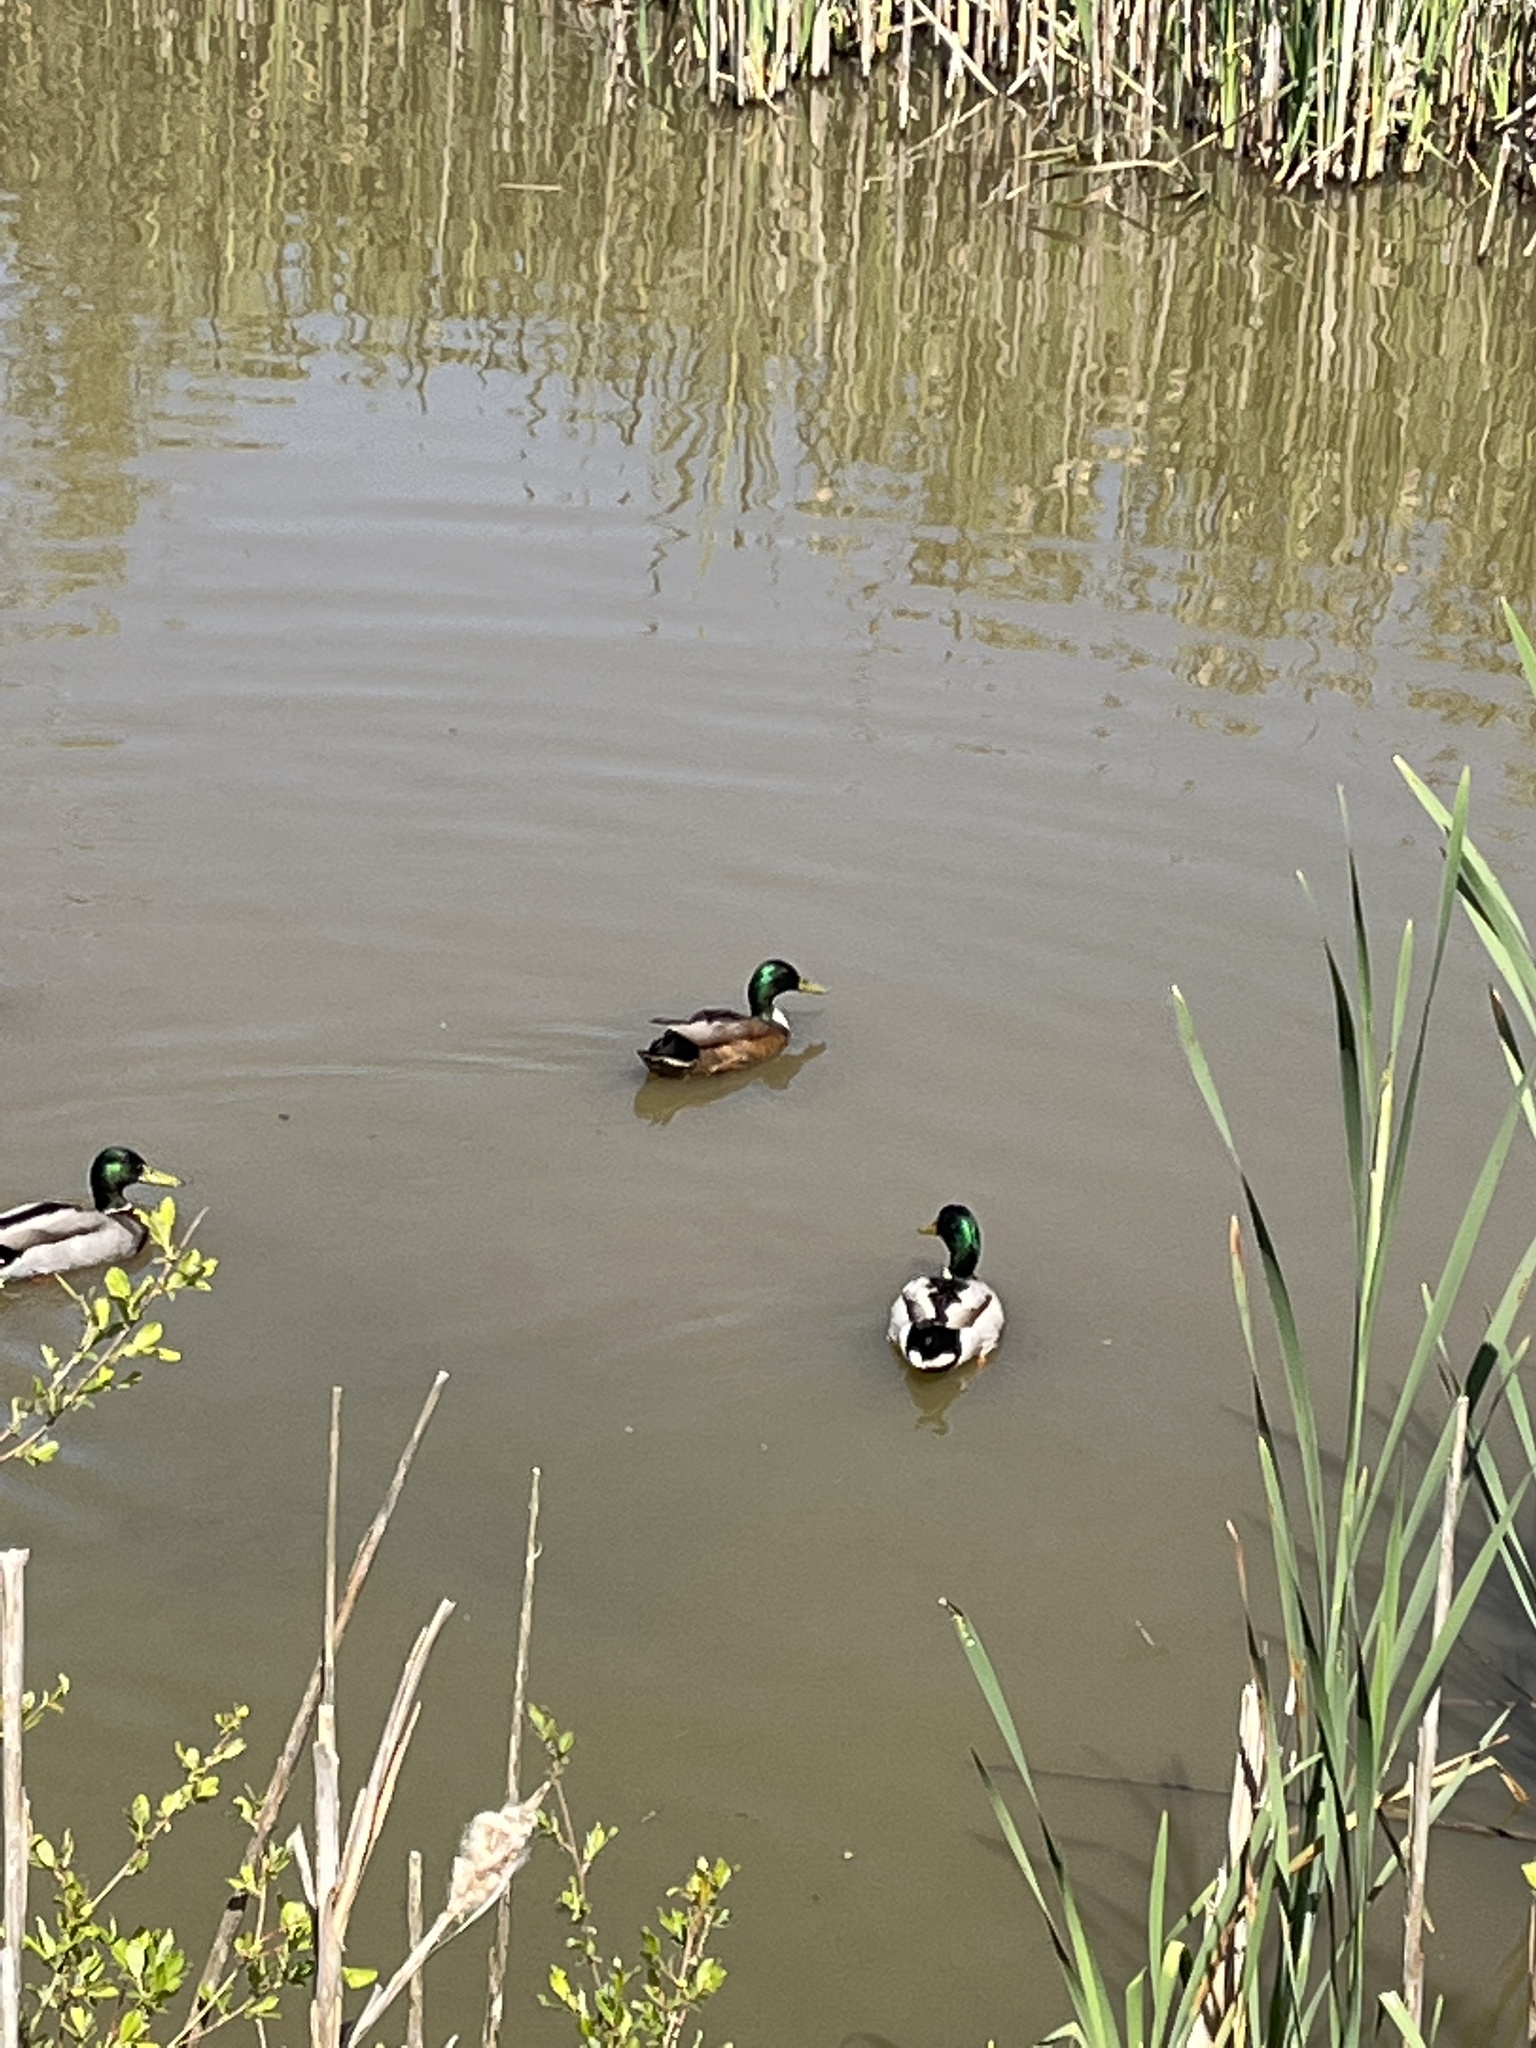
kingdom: Animalia
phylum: Chordata
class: Aves
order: Anseriformes
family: Anatidae
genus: Anas
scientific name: Anas platyrhynchos
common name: Mallard
